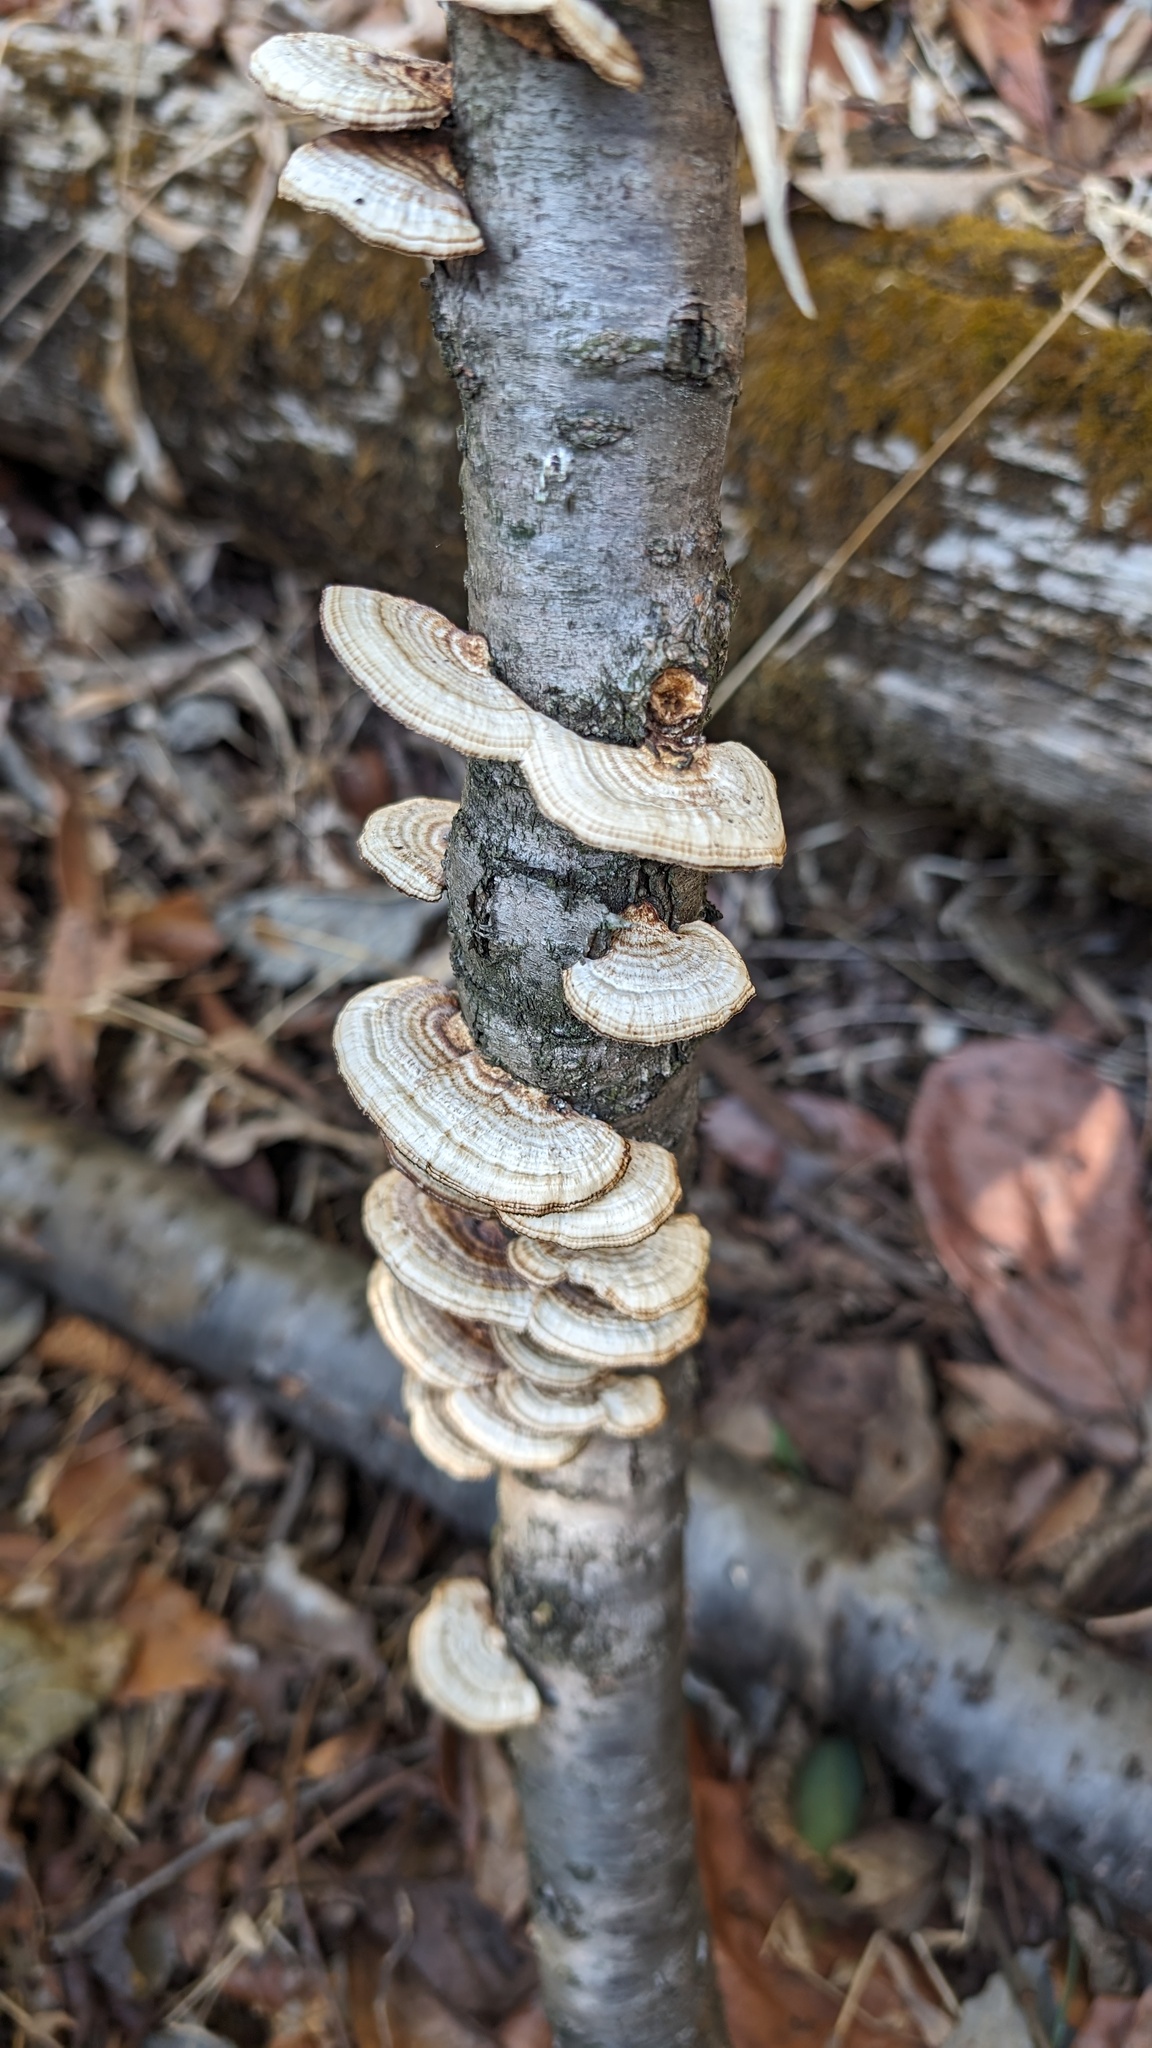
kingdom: Fungi
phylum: Basidiomycota
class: Agaricomycetes
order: Polyporales
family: Polyporaceae
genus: Daedaleopsis
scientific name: Daedaleopsis tricolor
